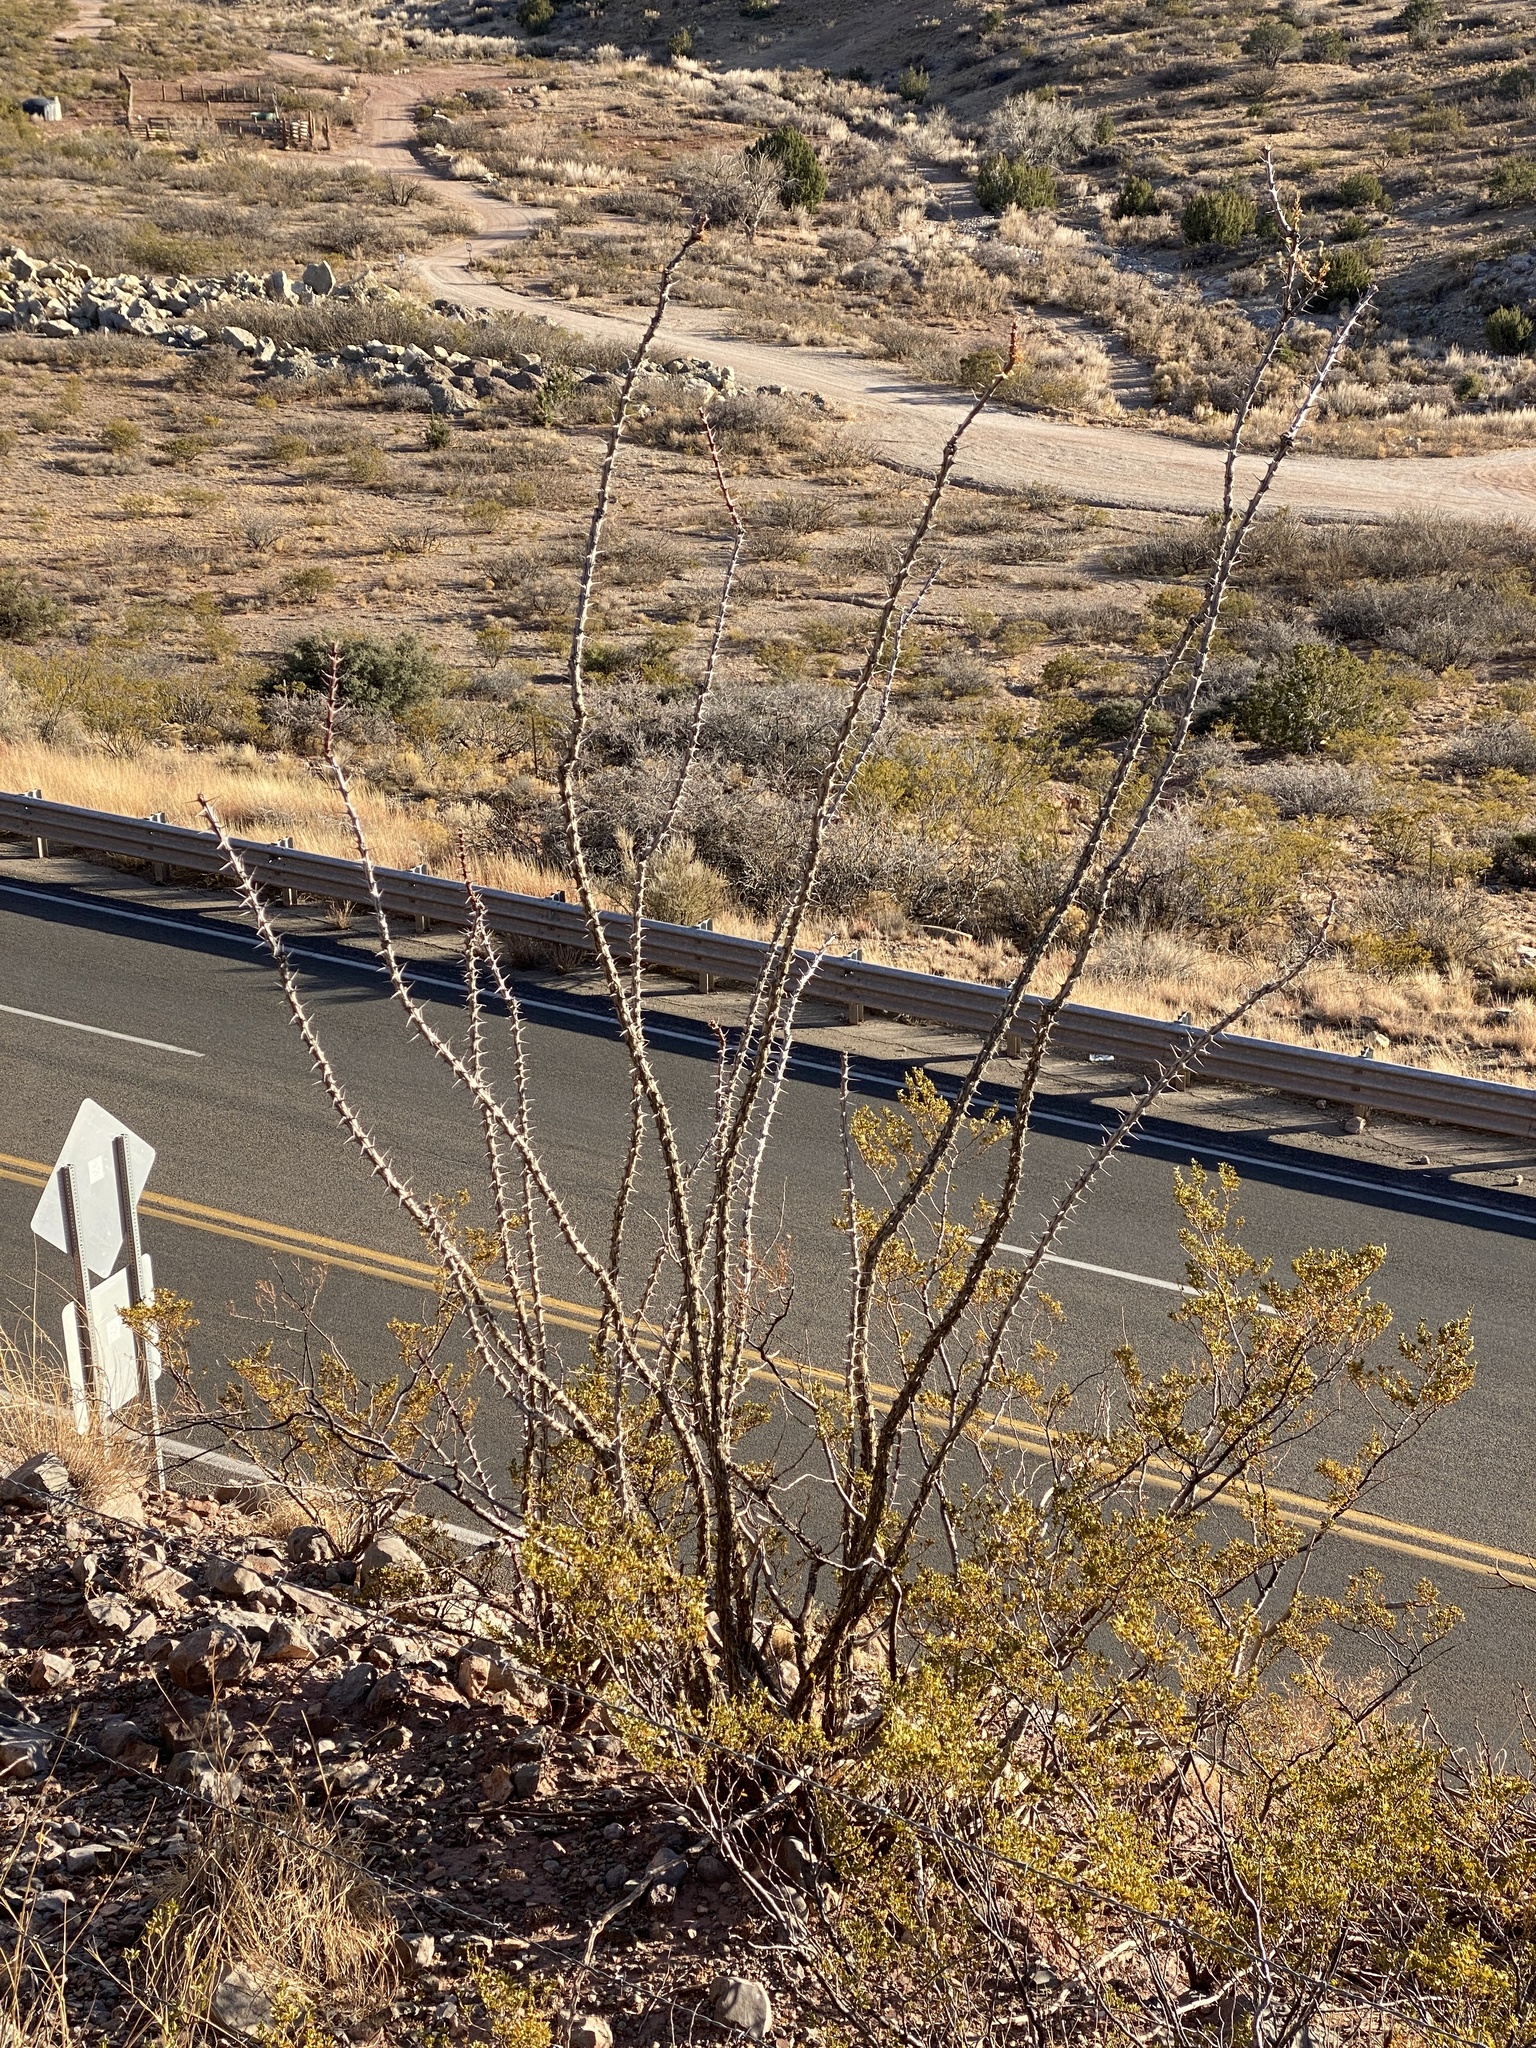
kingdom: Plantae
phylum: Tracheophyta
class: Magnoliopsida
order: Ericales
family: Fouquieriaceae
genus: Fouquieria
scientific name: Fouquieria splendens
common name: Vine-cactus
